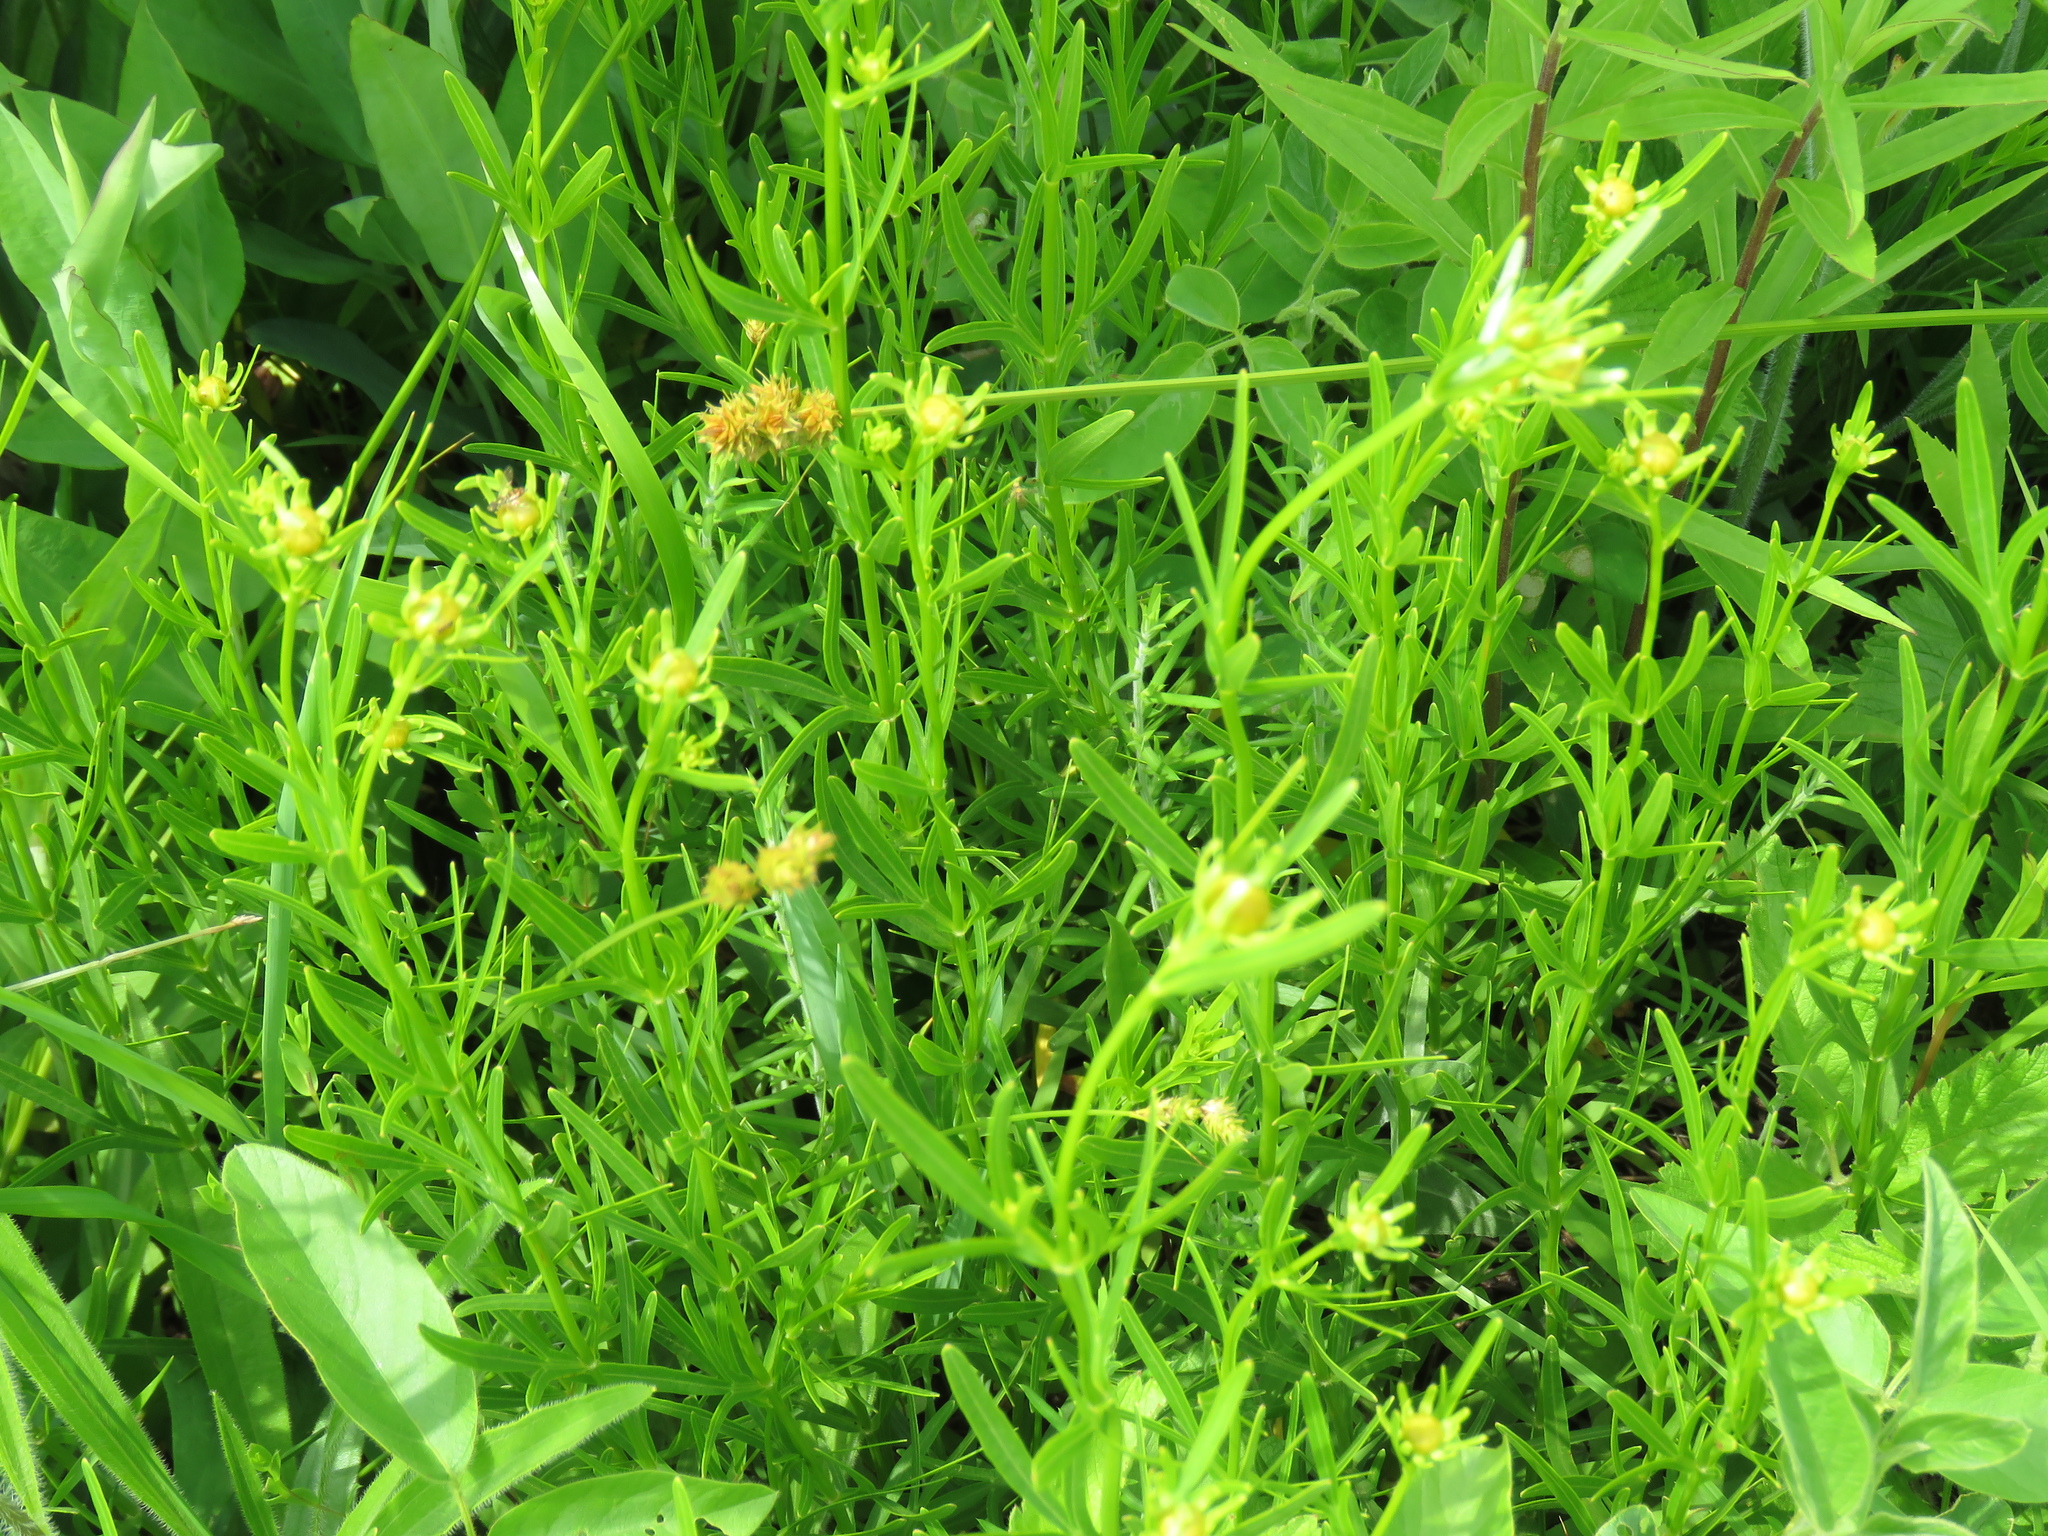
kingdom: Plantae
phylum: Tracheophyta
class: Magnoliopsida
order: Asterales
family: Asteraceae
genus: Coreopsis
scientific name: Coreopsis palmata
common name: Prairie coreopsis
